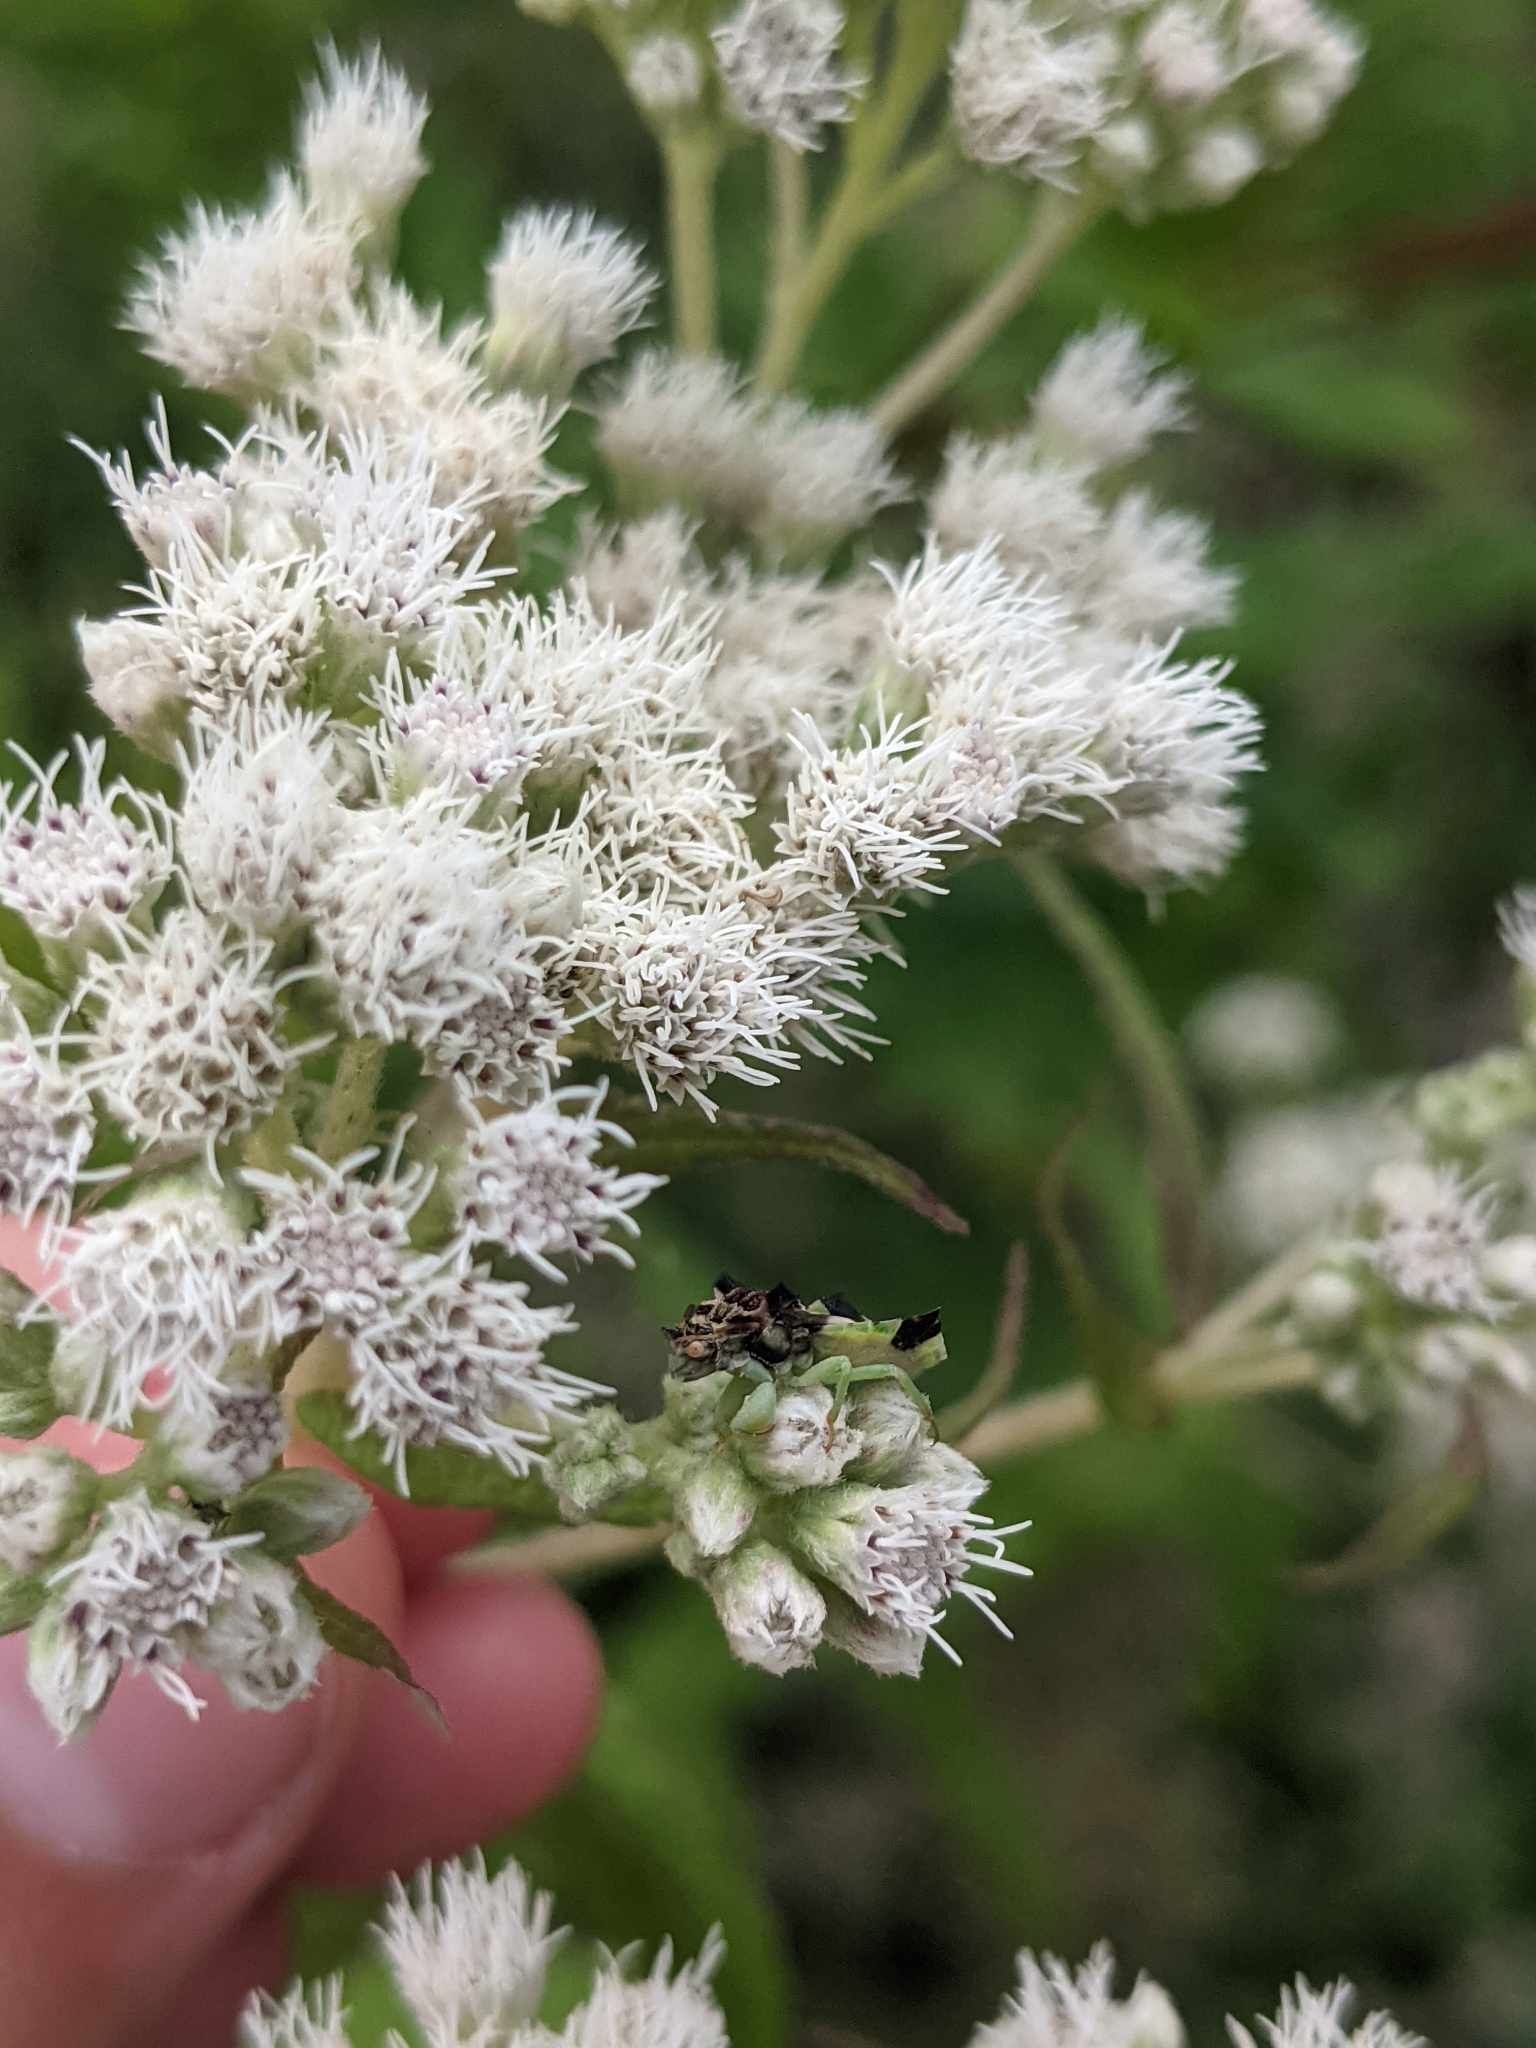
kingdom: Animalia
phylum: Arthropoda
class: Insecta
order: Hemiptera
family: Reduviidae
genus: Phymata
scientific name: Phymata americana
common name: Jagged ambush bug
